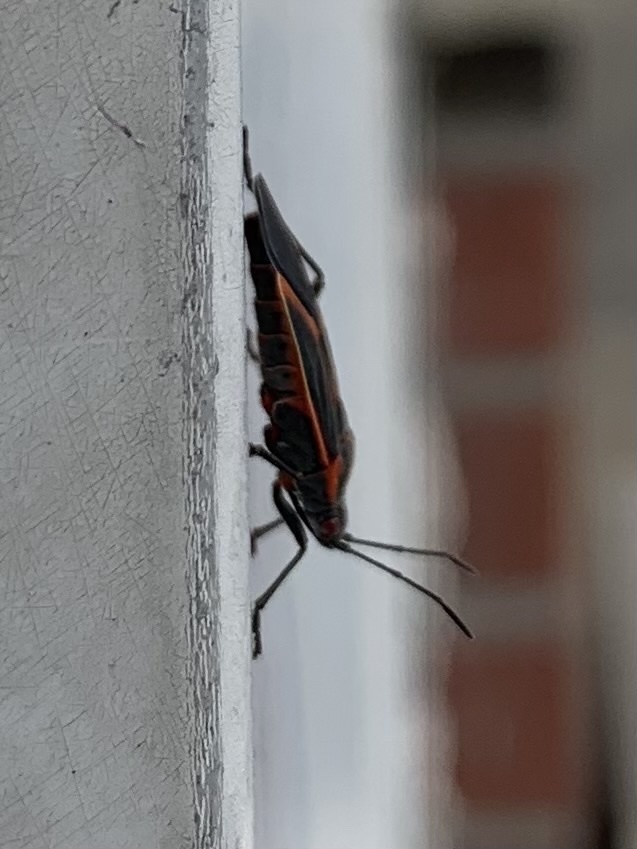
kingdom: Animalia
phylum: Arthropoda
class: Insecta
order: Hemiptera
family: Rhopalidae
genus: Boisea
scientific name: Boisea trivittata
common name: Boxelder bug
